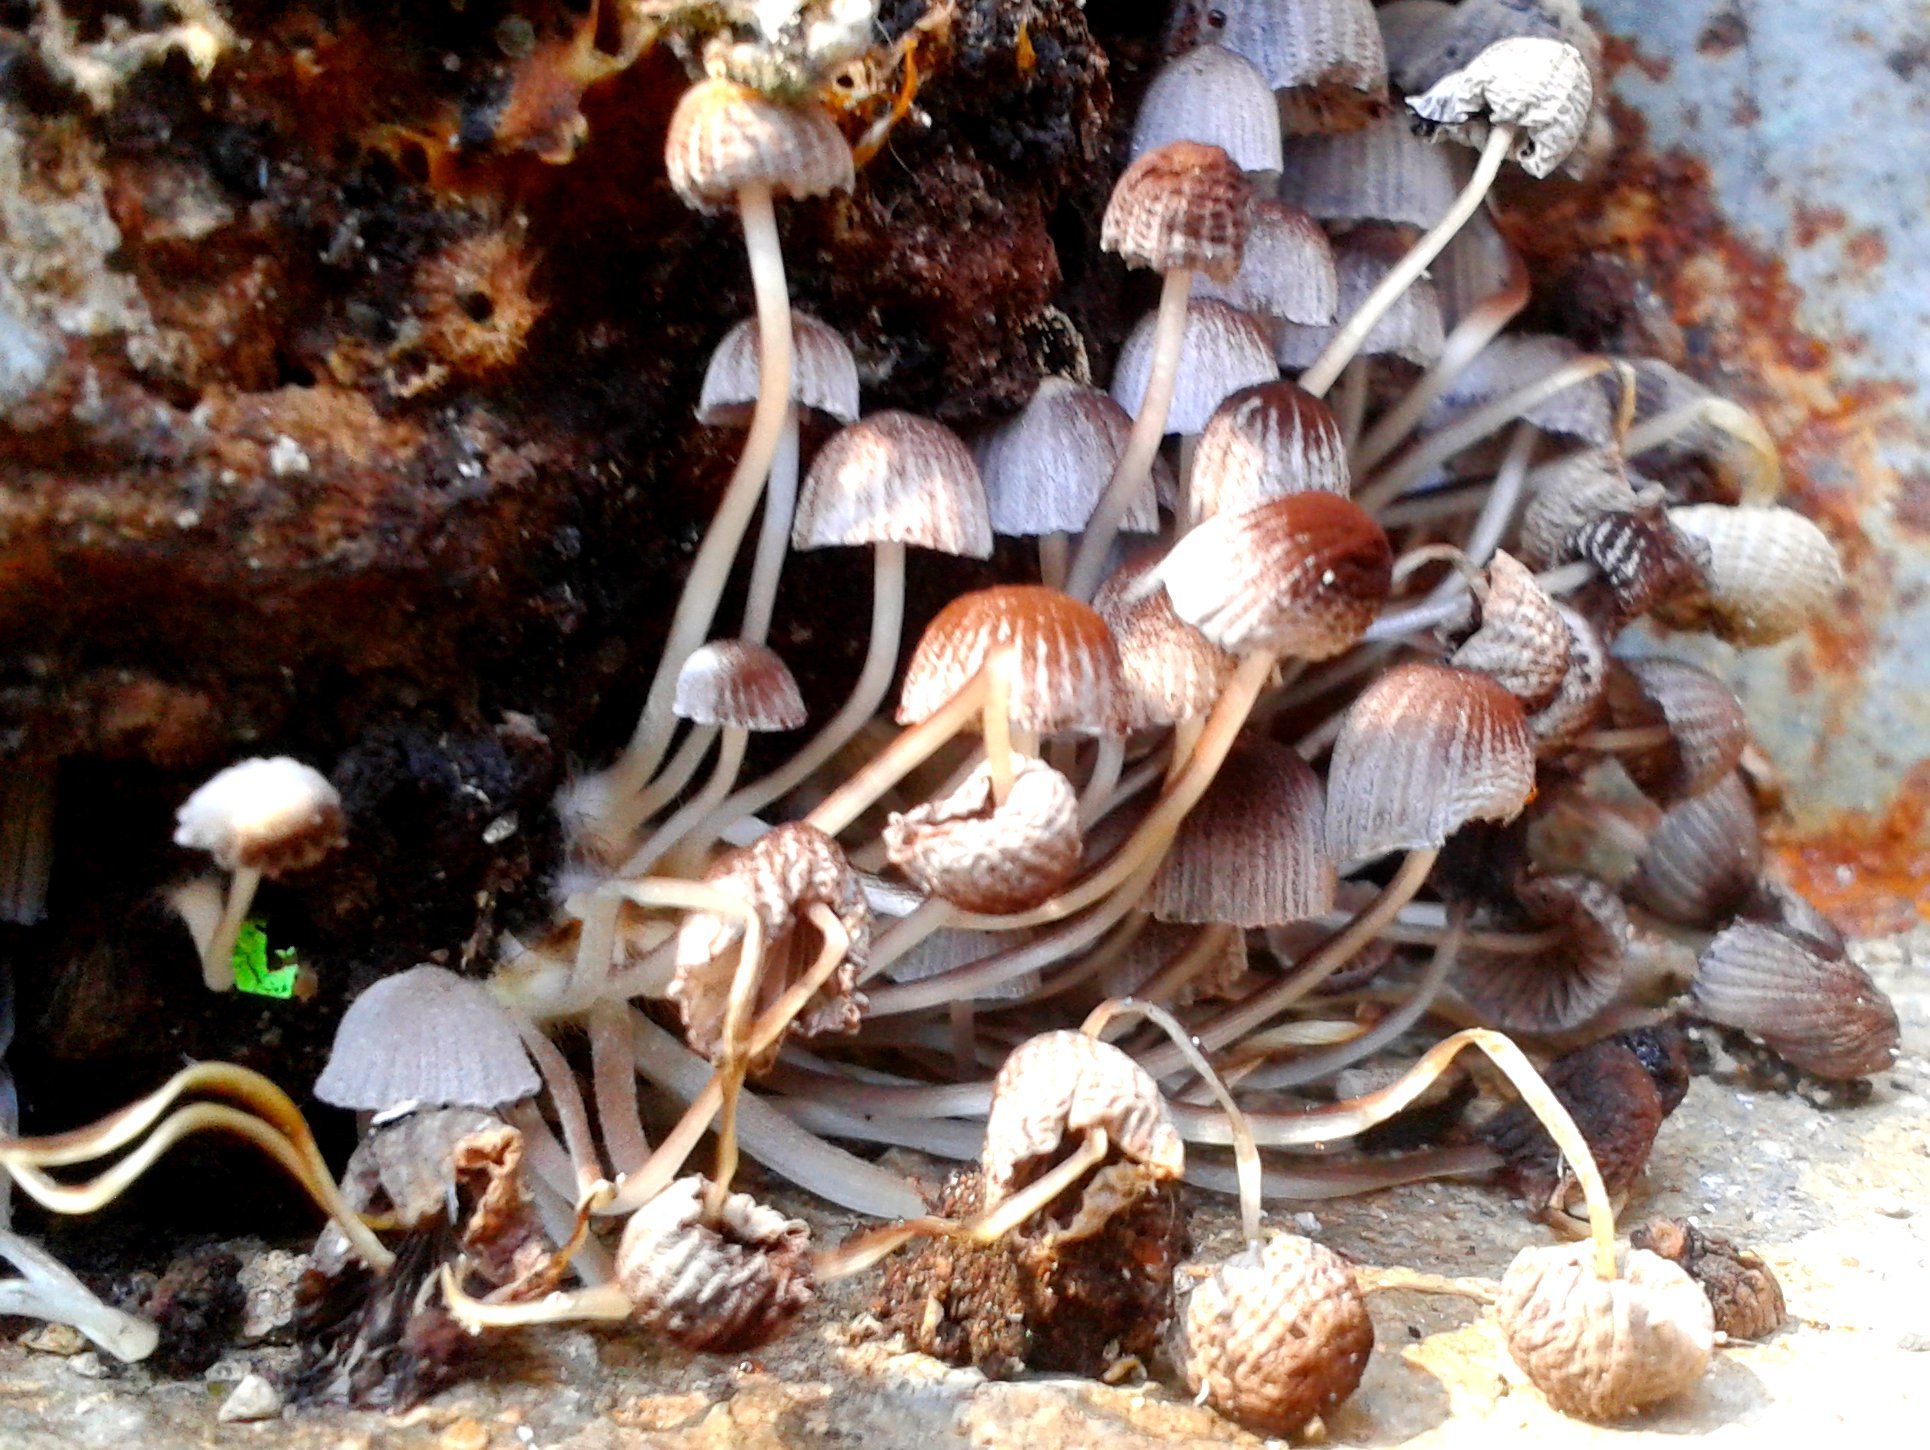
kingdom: Fungi
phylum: Basidiomycota
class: Agaricomycetes
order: Agaricales
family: Psathyrellaceae
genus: Coprinellus
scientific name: Coprinellus disseminatus
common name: Fairies' bonnets
